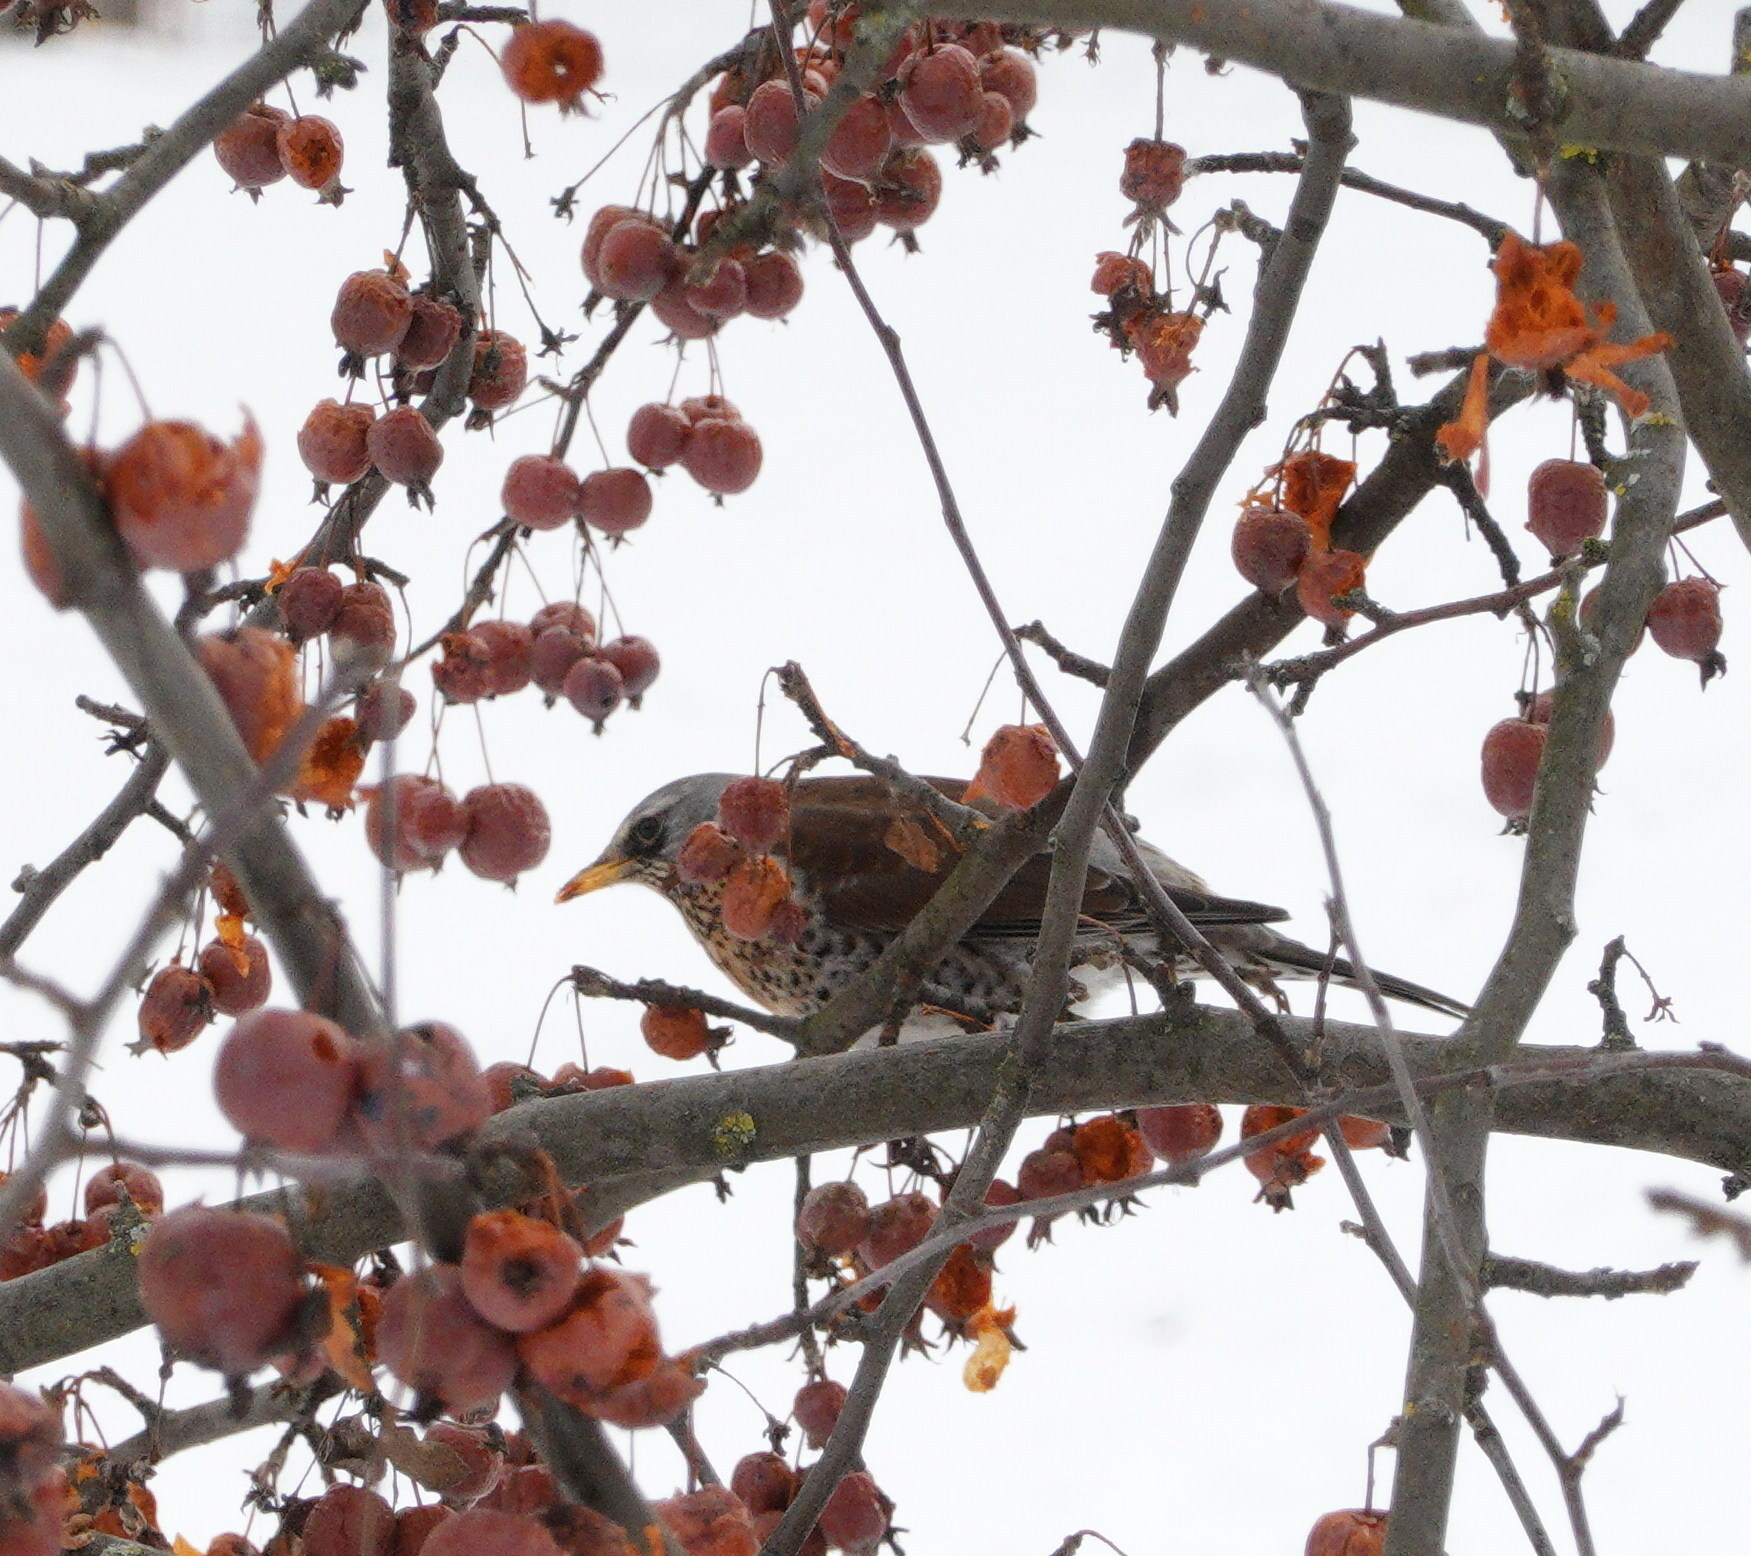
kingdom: Animalia
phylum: Chordata
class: Aves
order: Passeriformes
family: Turdidae
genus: Turdus
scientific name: Turdus pilaris
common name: Fieldfare
